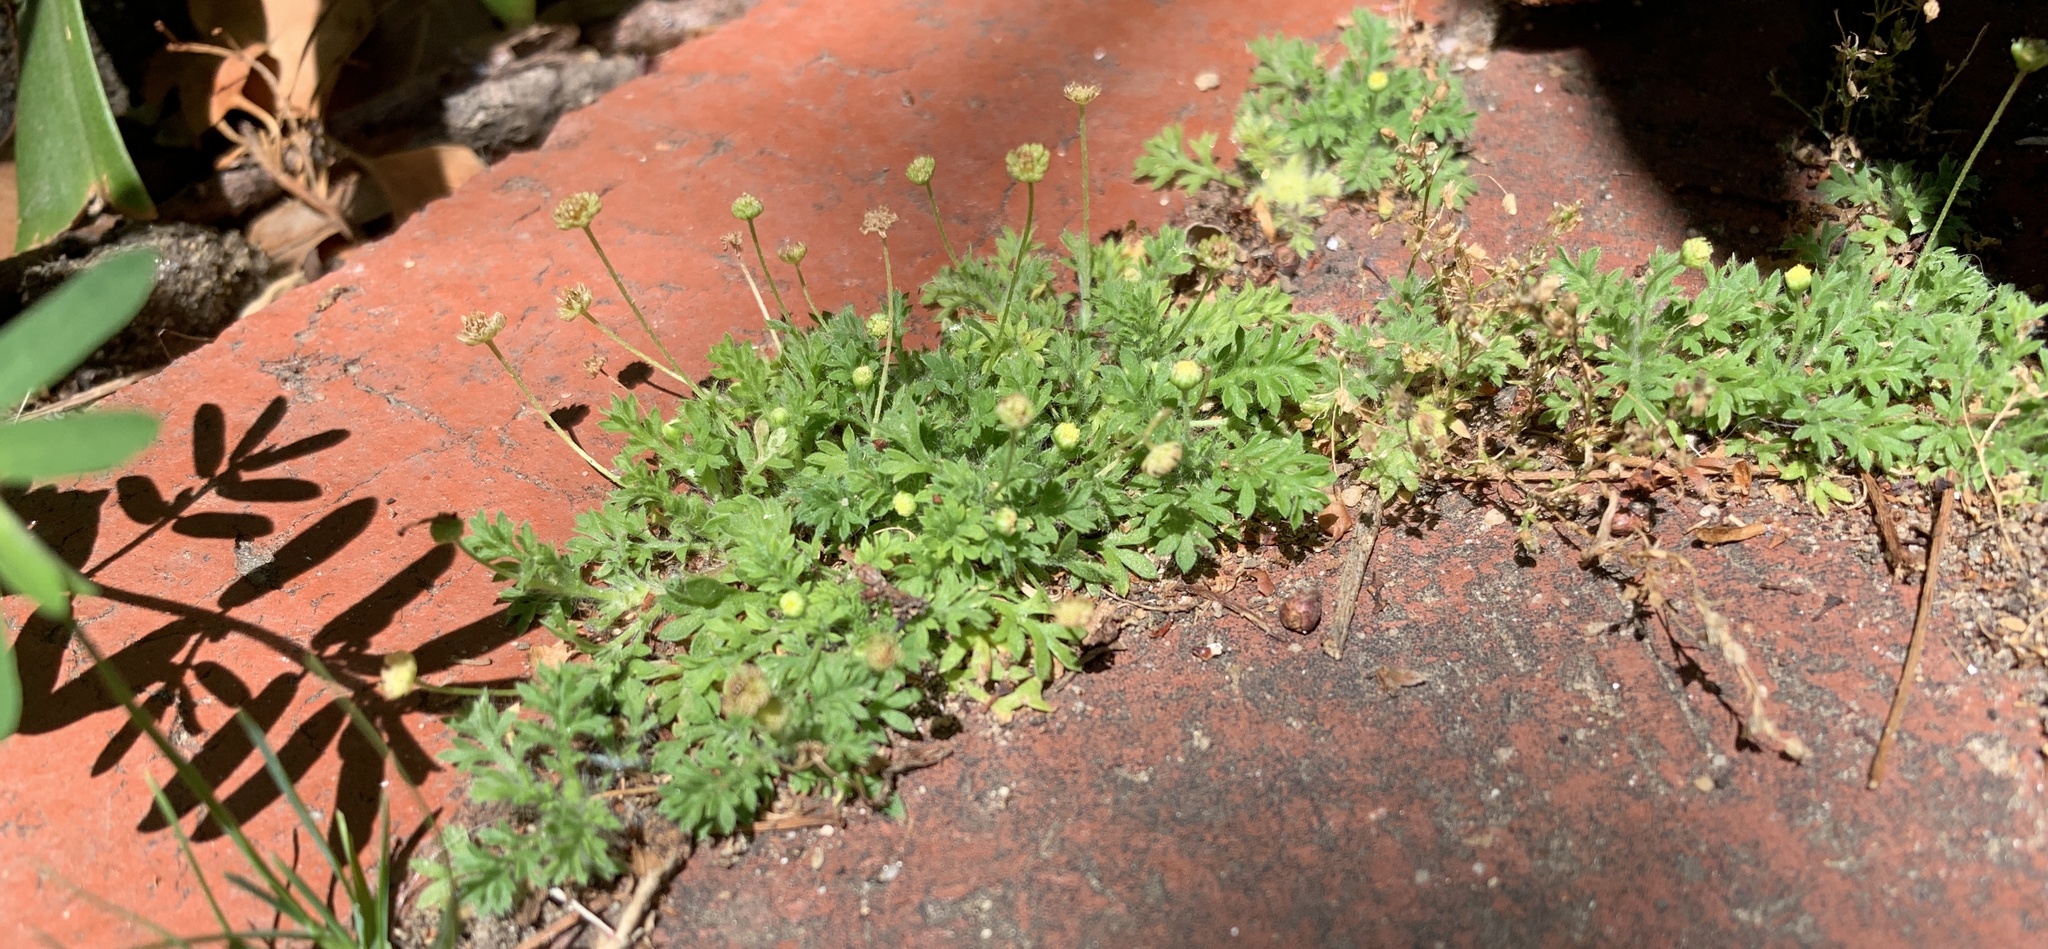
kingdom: Plantae
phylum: Tracheophyta
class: Magnoliopsida
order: Asterales
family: Asteraceae
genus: Cotula
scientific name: Cotula australis
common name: Australian waterbuttons
